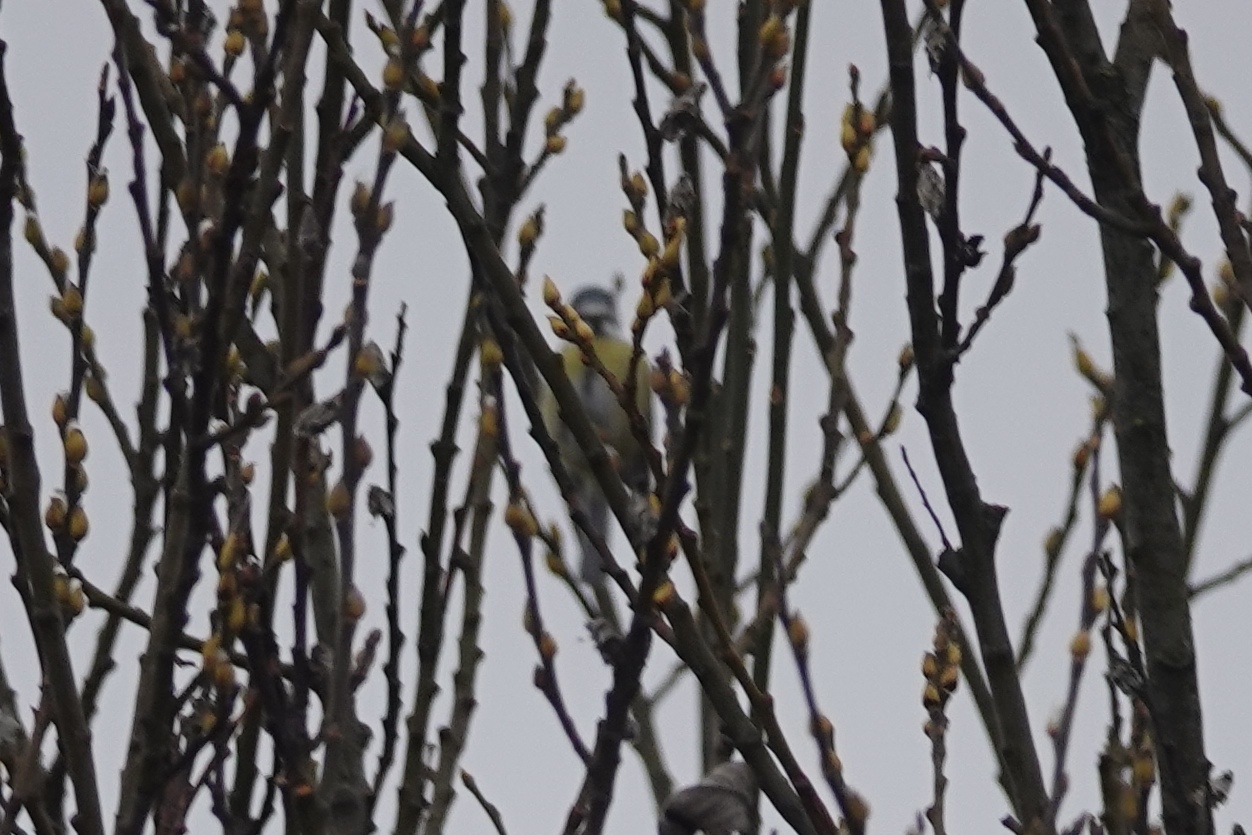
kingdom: Animalia
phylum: Chordata
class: Aves
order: Passeriformes
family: Paridae
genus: Cyanistes
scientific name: Cyanistes caeruleus
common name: Eurasian blue tit
